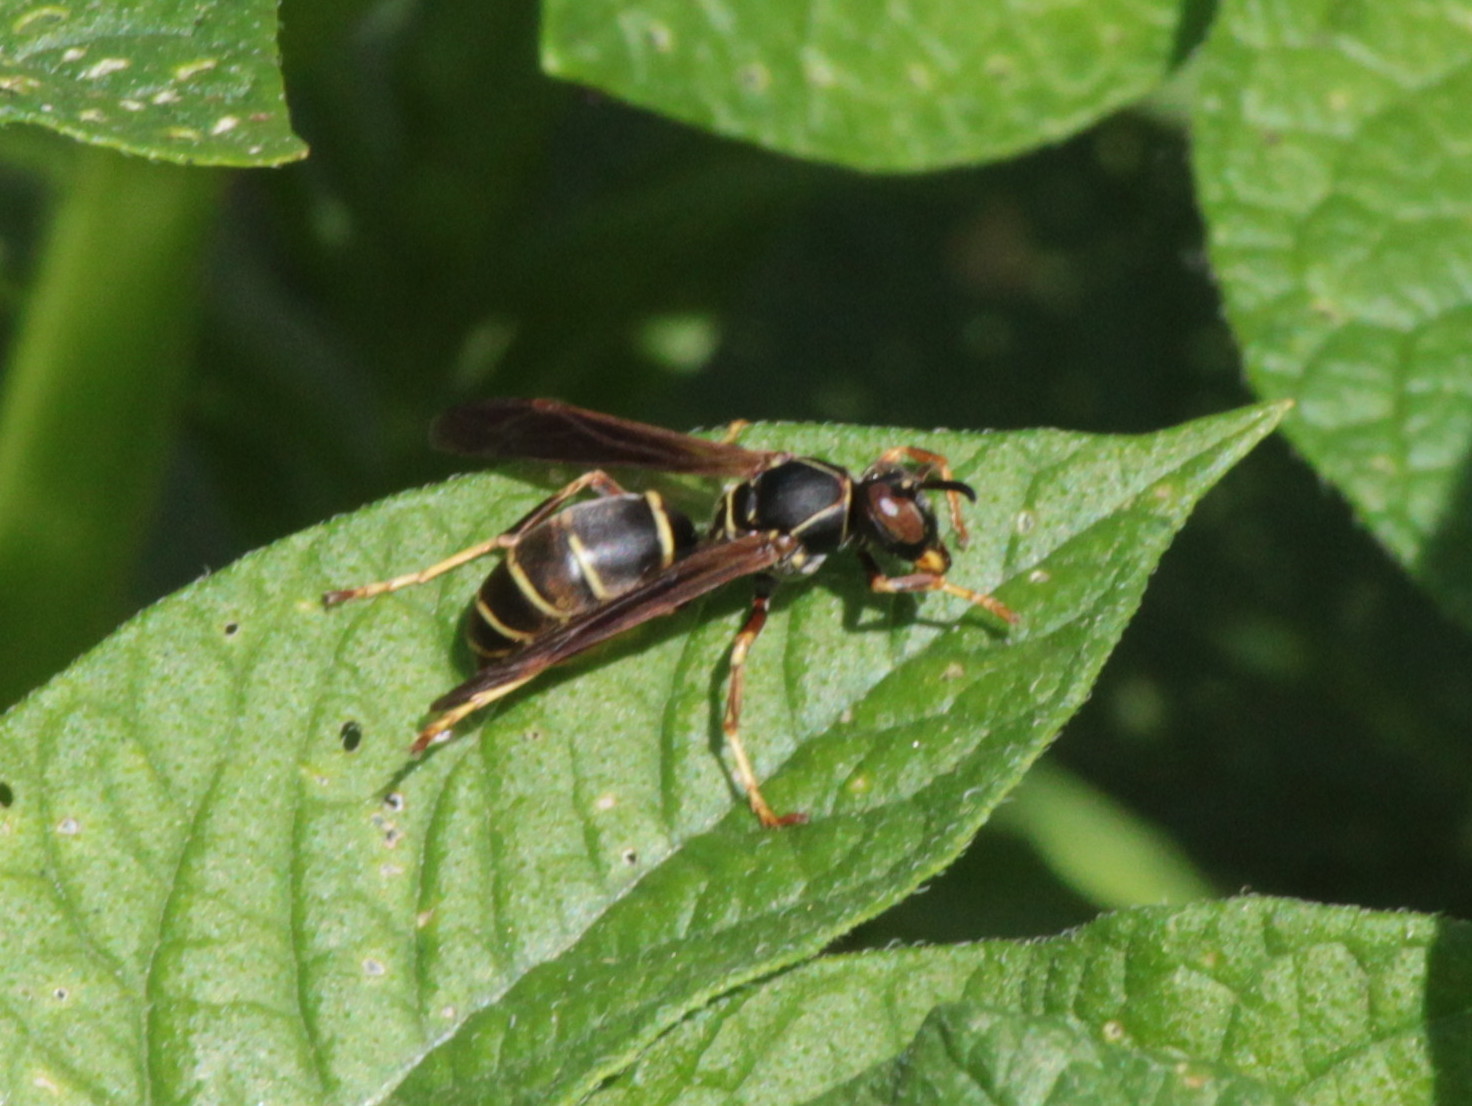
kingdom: Animalia
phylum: Arthropoda
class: Insecta
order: Hymenoptera
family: Eumenidae
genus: Polistes
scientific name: Polistes fuscatus
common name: Dark paper wasp
